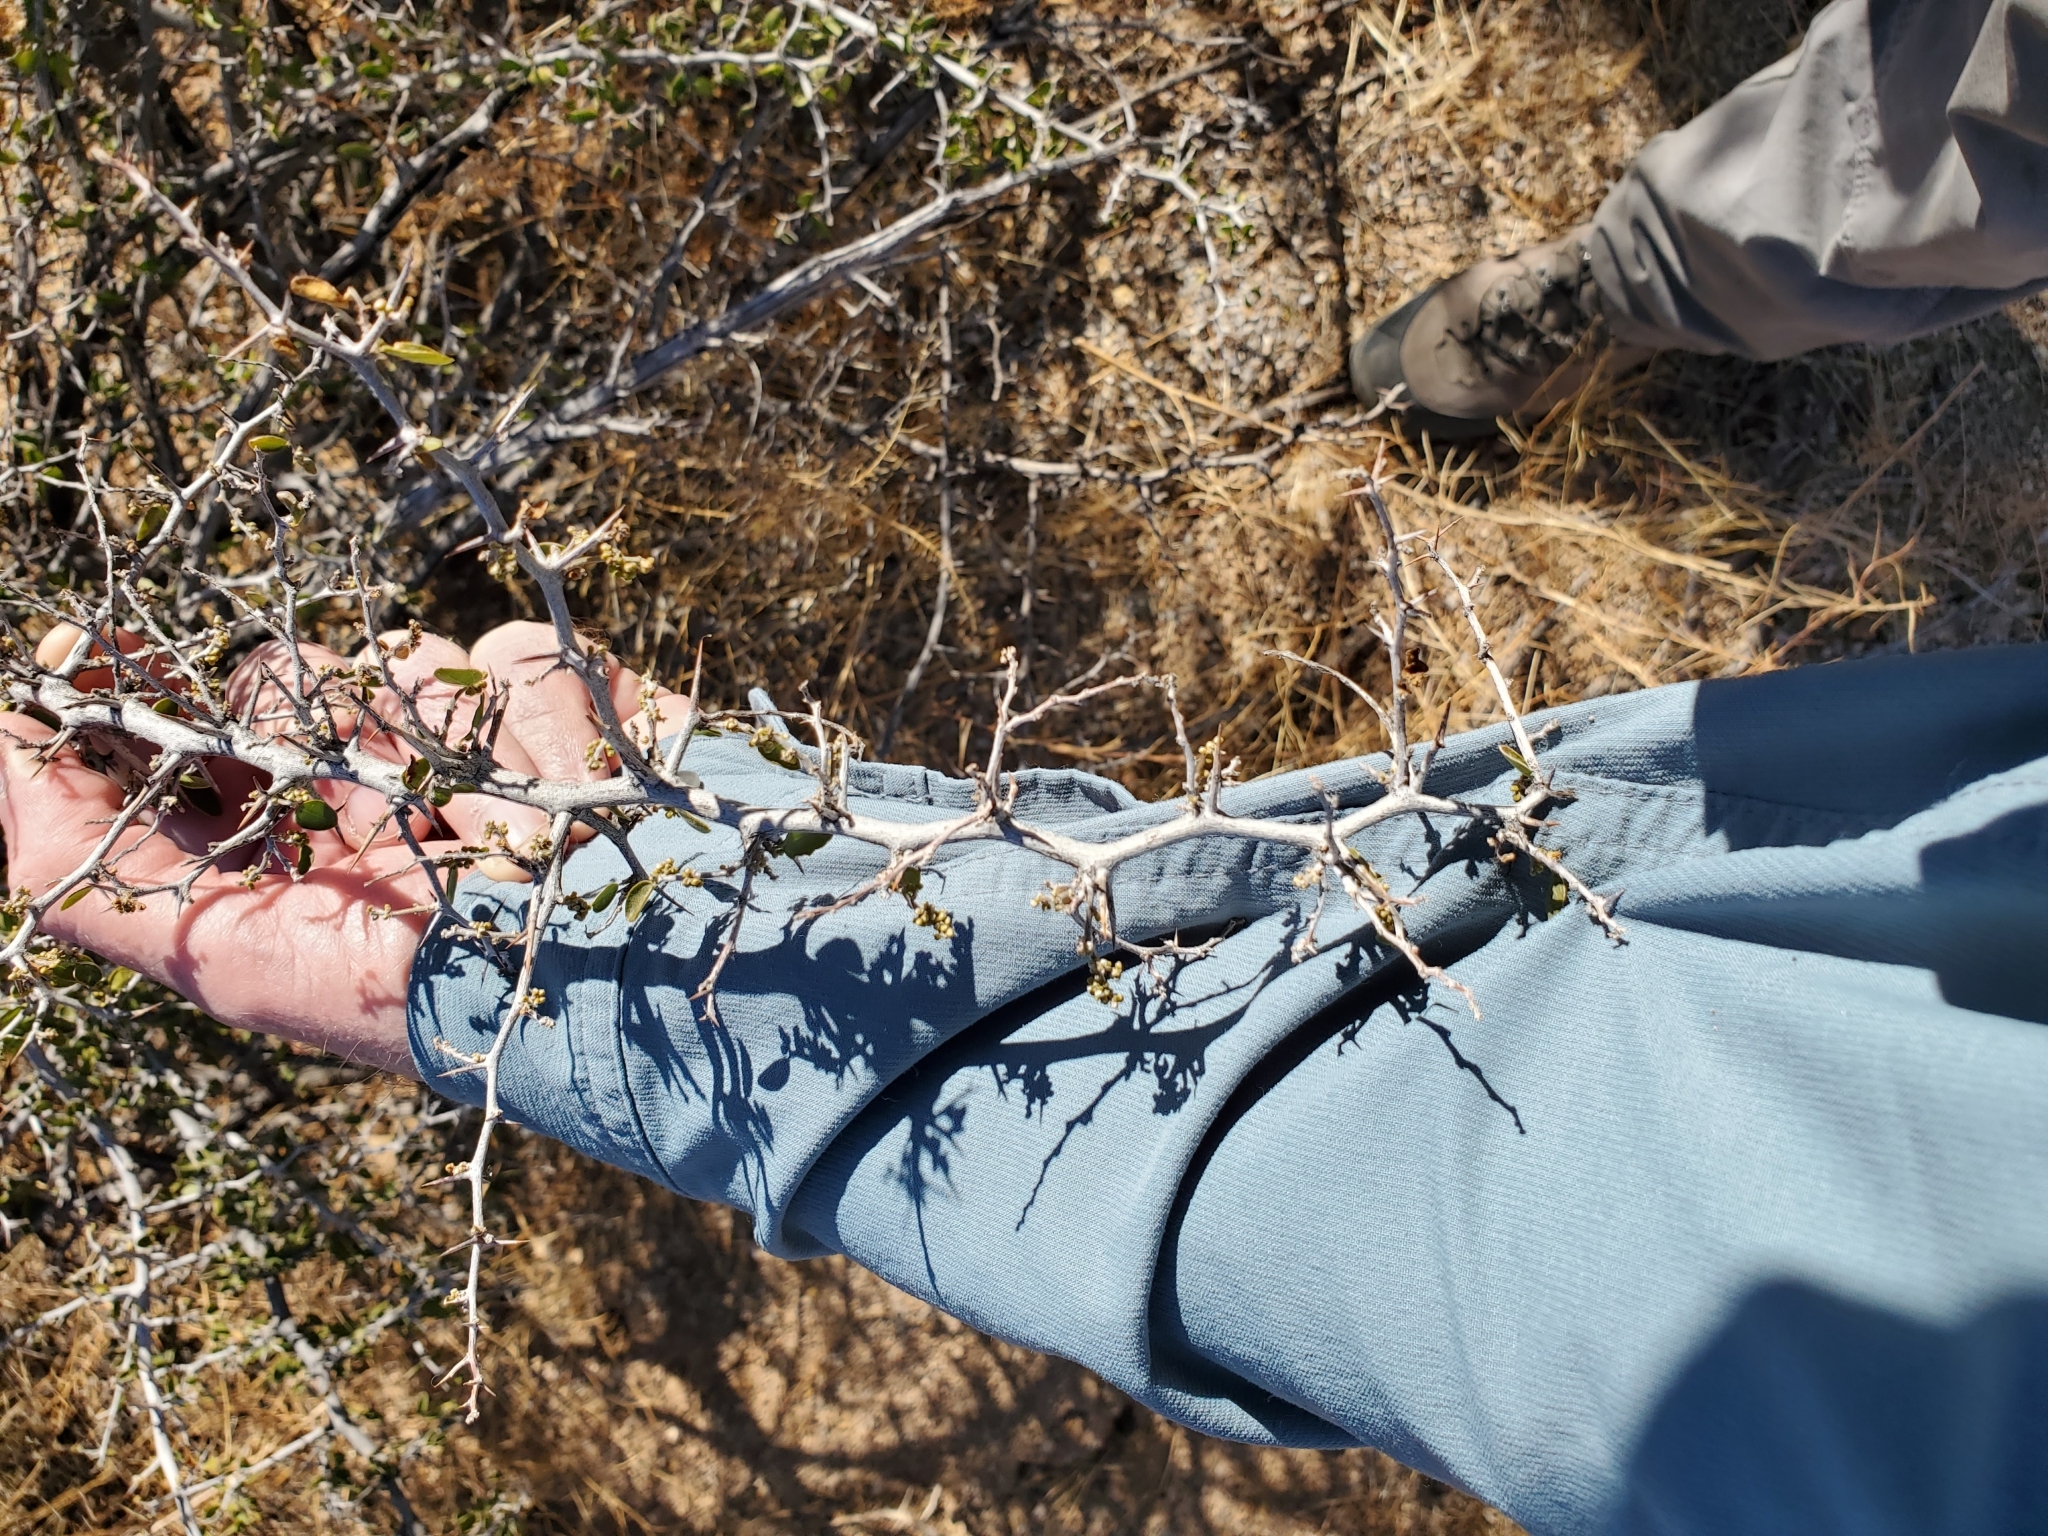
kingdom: Plantae
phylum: Tracheophyta
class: Magnoliopsida
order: Rosales
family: Cannabaceae
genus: Celtis
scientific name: Celtis pallida
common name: Desert hackberry
